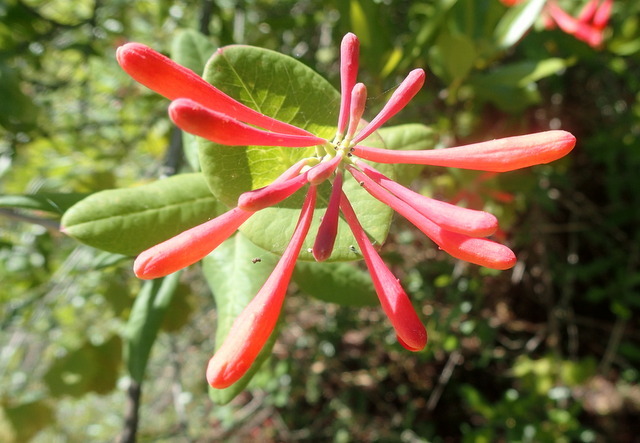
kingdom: Plantae
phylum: Tracheophyta
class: Magnoliopsida
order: Dipsacales
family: Caprifoliaceae
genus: Lonicera
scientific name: Lonicera sempervirens
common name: Coral honeysuckle
